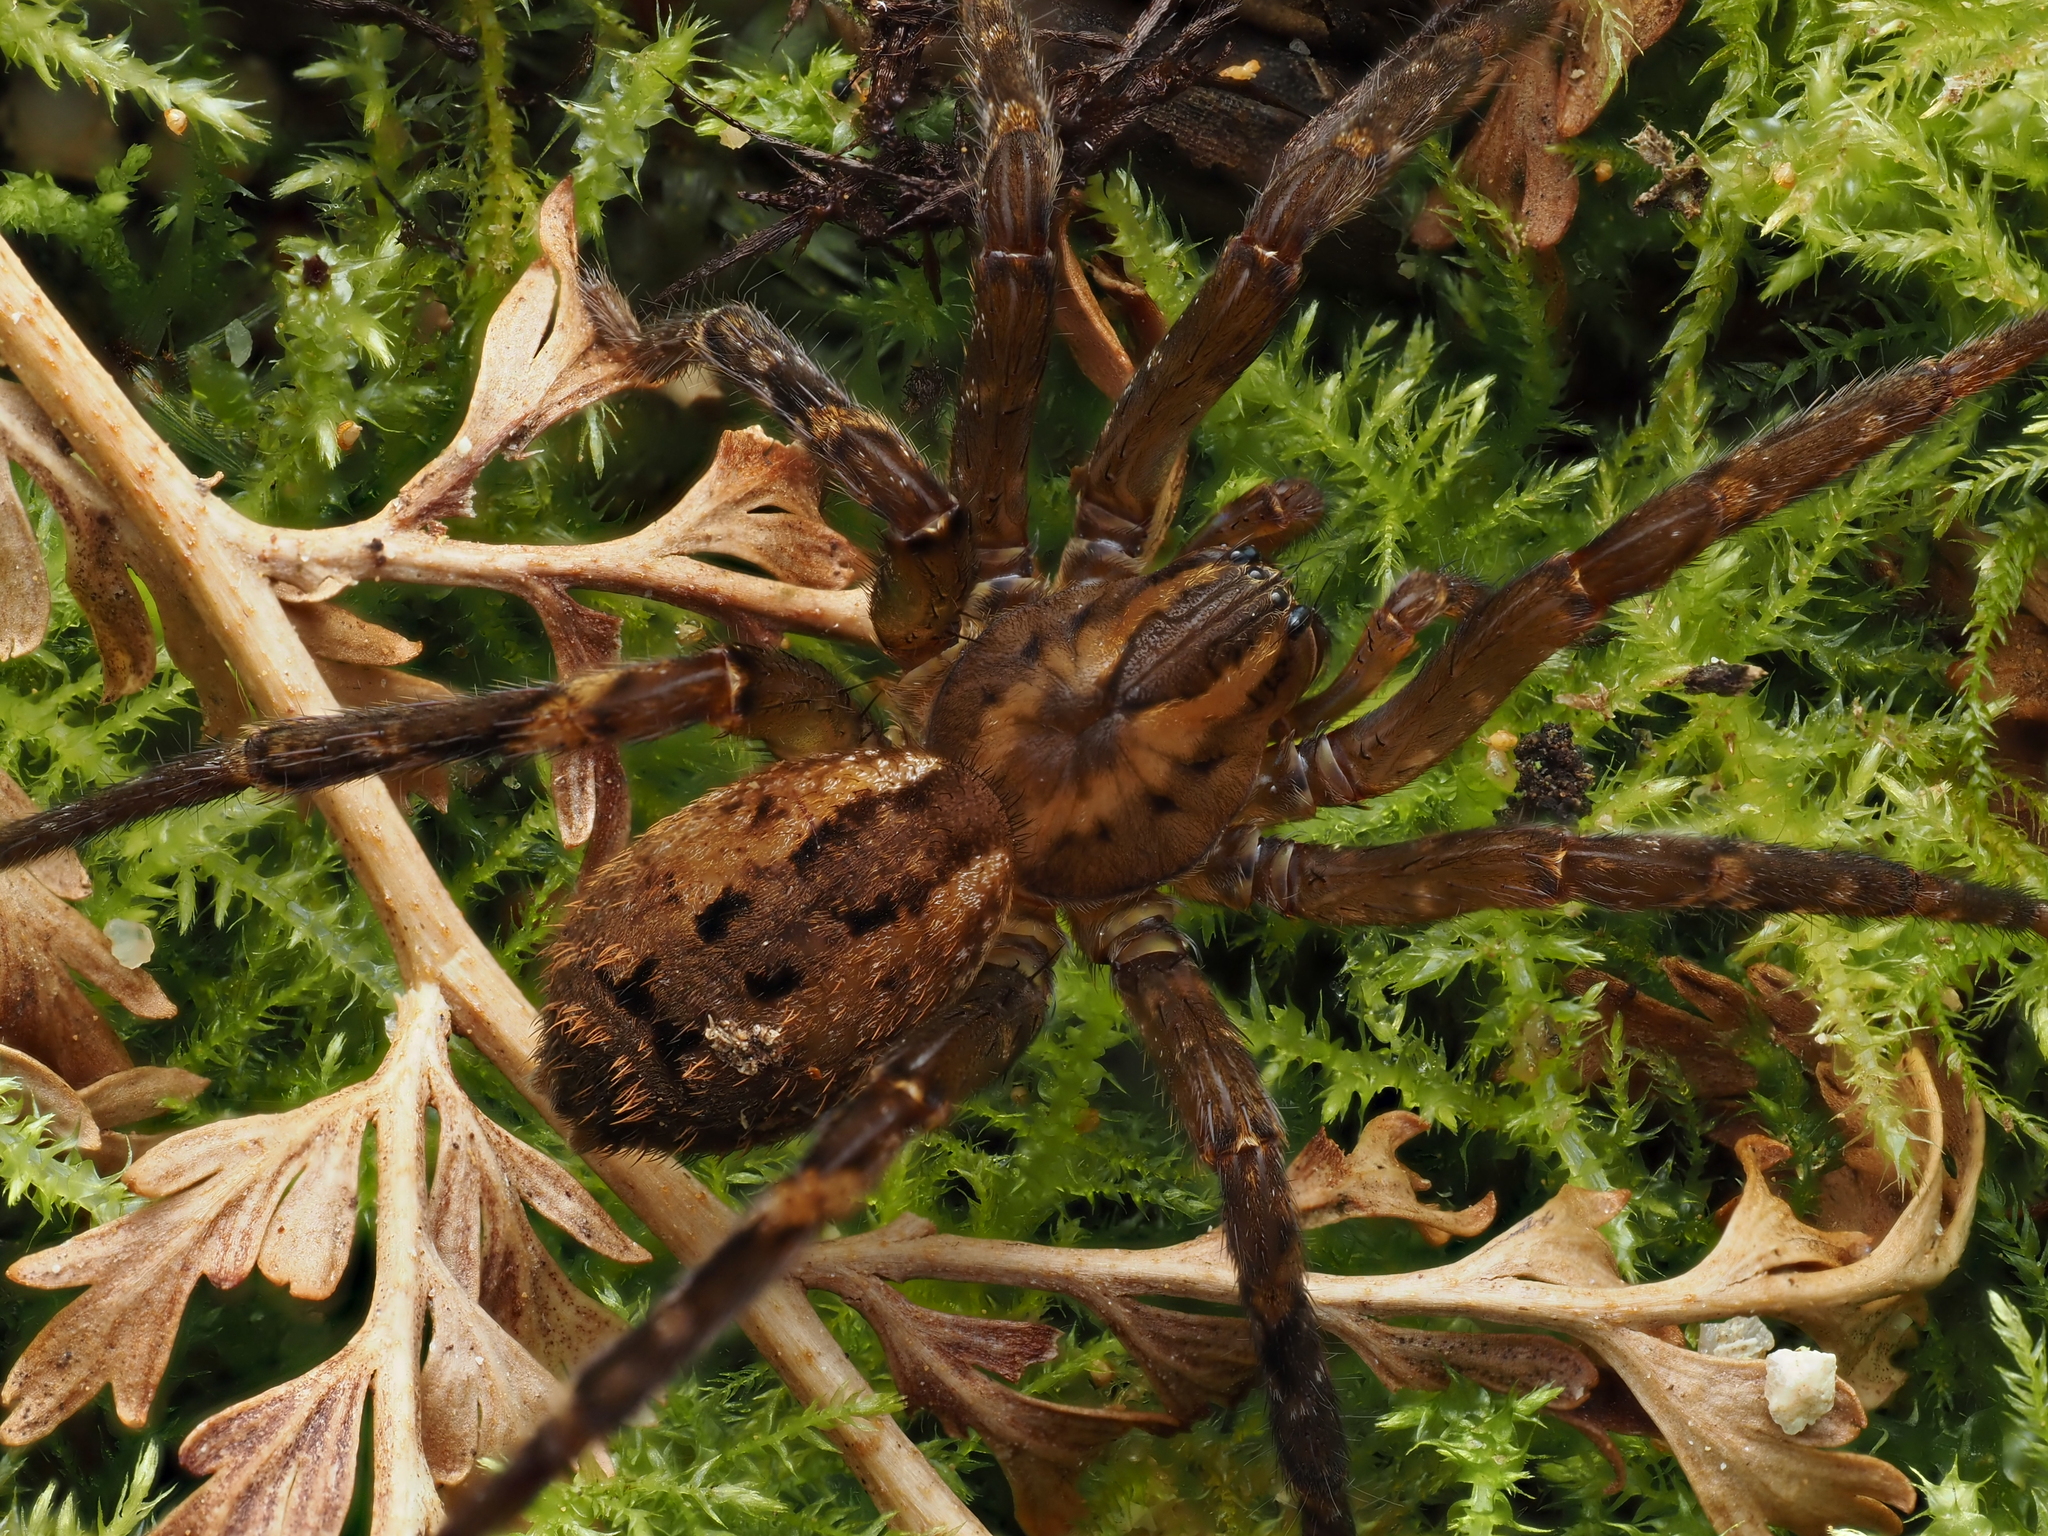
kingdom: Animalia
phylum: Arthropoda
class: Arachnida
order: Araneae
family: Gradungulidae
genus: Gradungula
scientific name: Gradungula sorenseni
